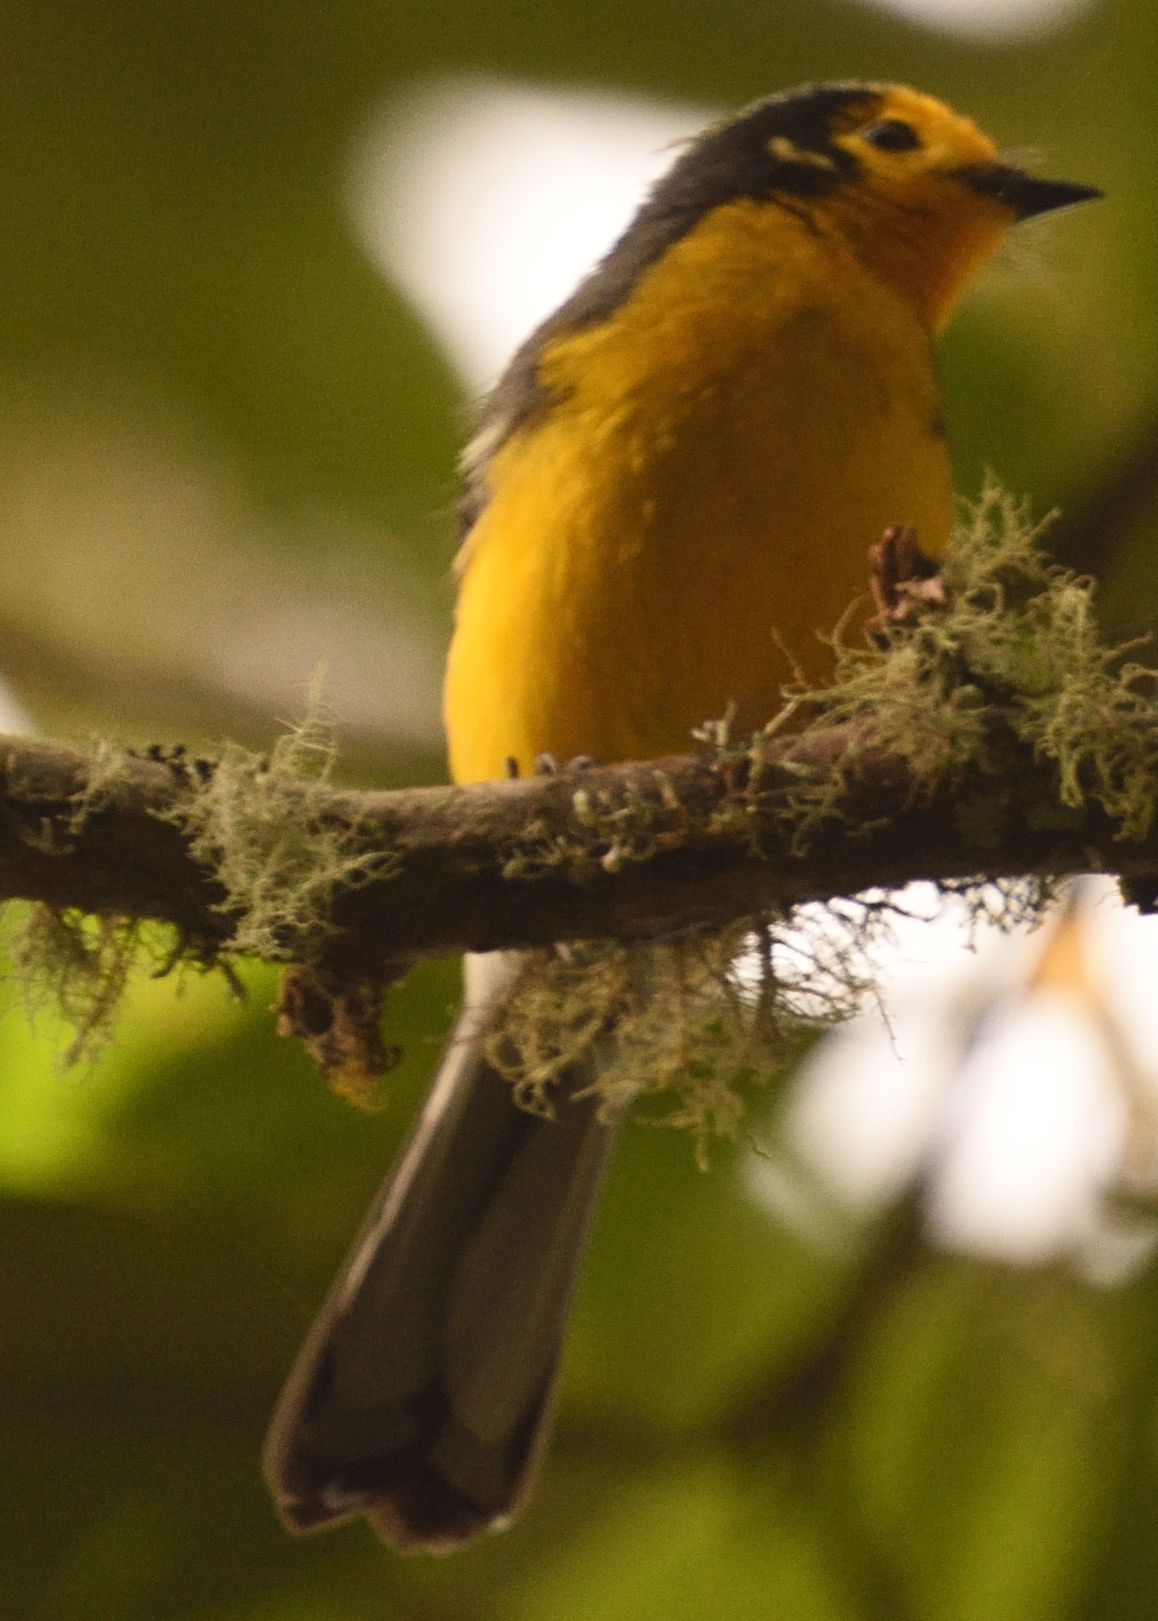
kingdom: Animalia
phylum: Chordata
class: Aves
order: Passeriformes
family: Parulidae
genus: Myioborus
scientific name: Myioborus ornatus
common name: Golden-fronted whitestart
